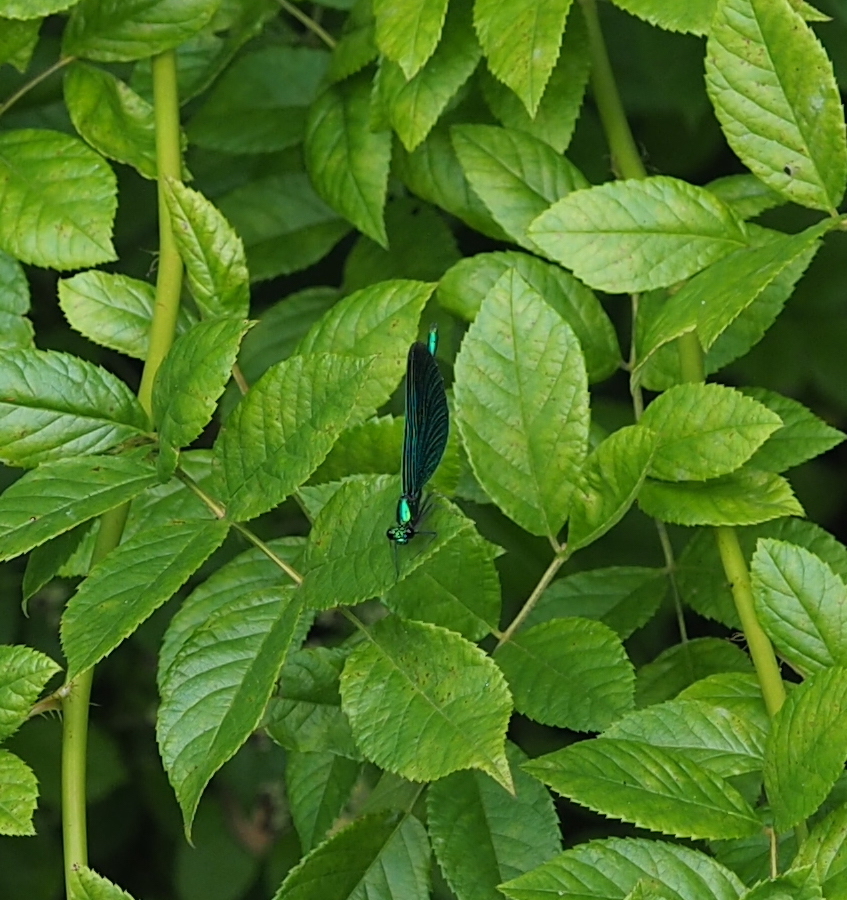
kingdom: Animalia
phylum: Arthropoda
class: Insecta
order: Odonata
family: Calopterygidae
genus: Calopteryx
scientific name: Calopteryx virgo
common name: Beautiful demoiselle
